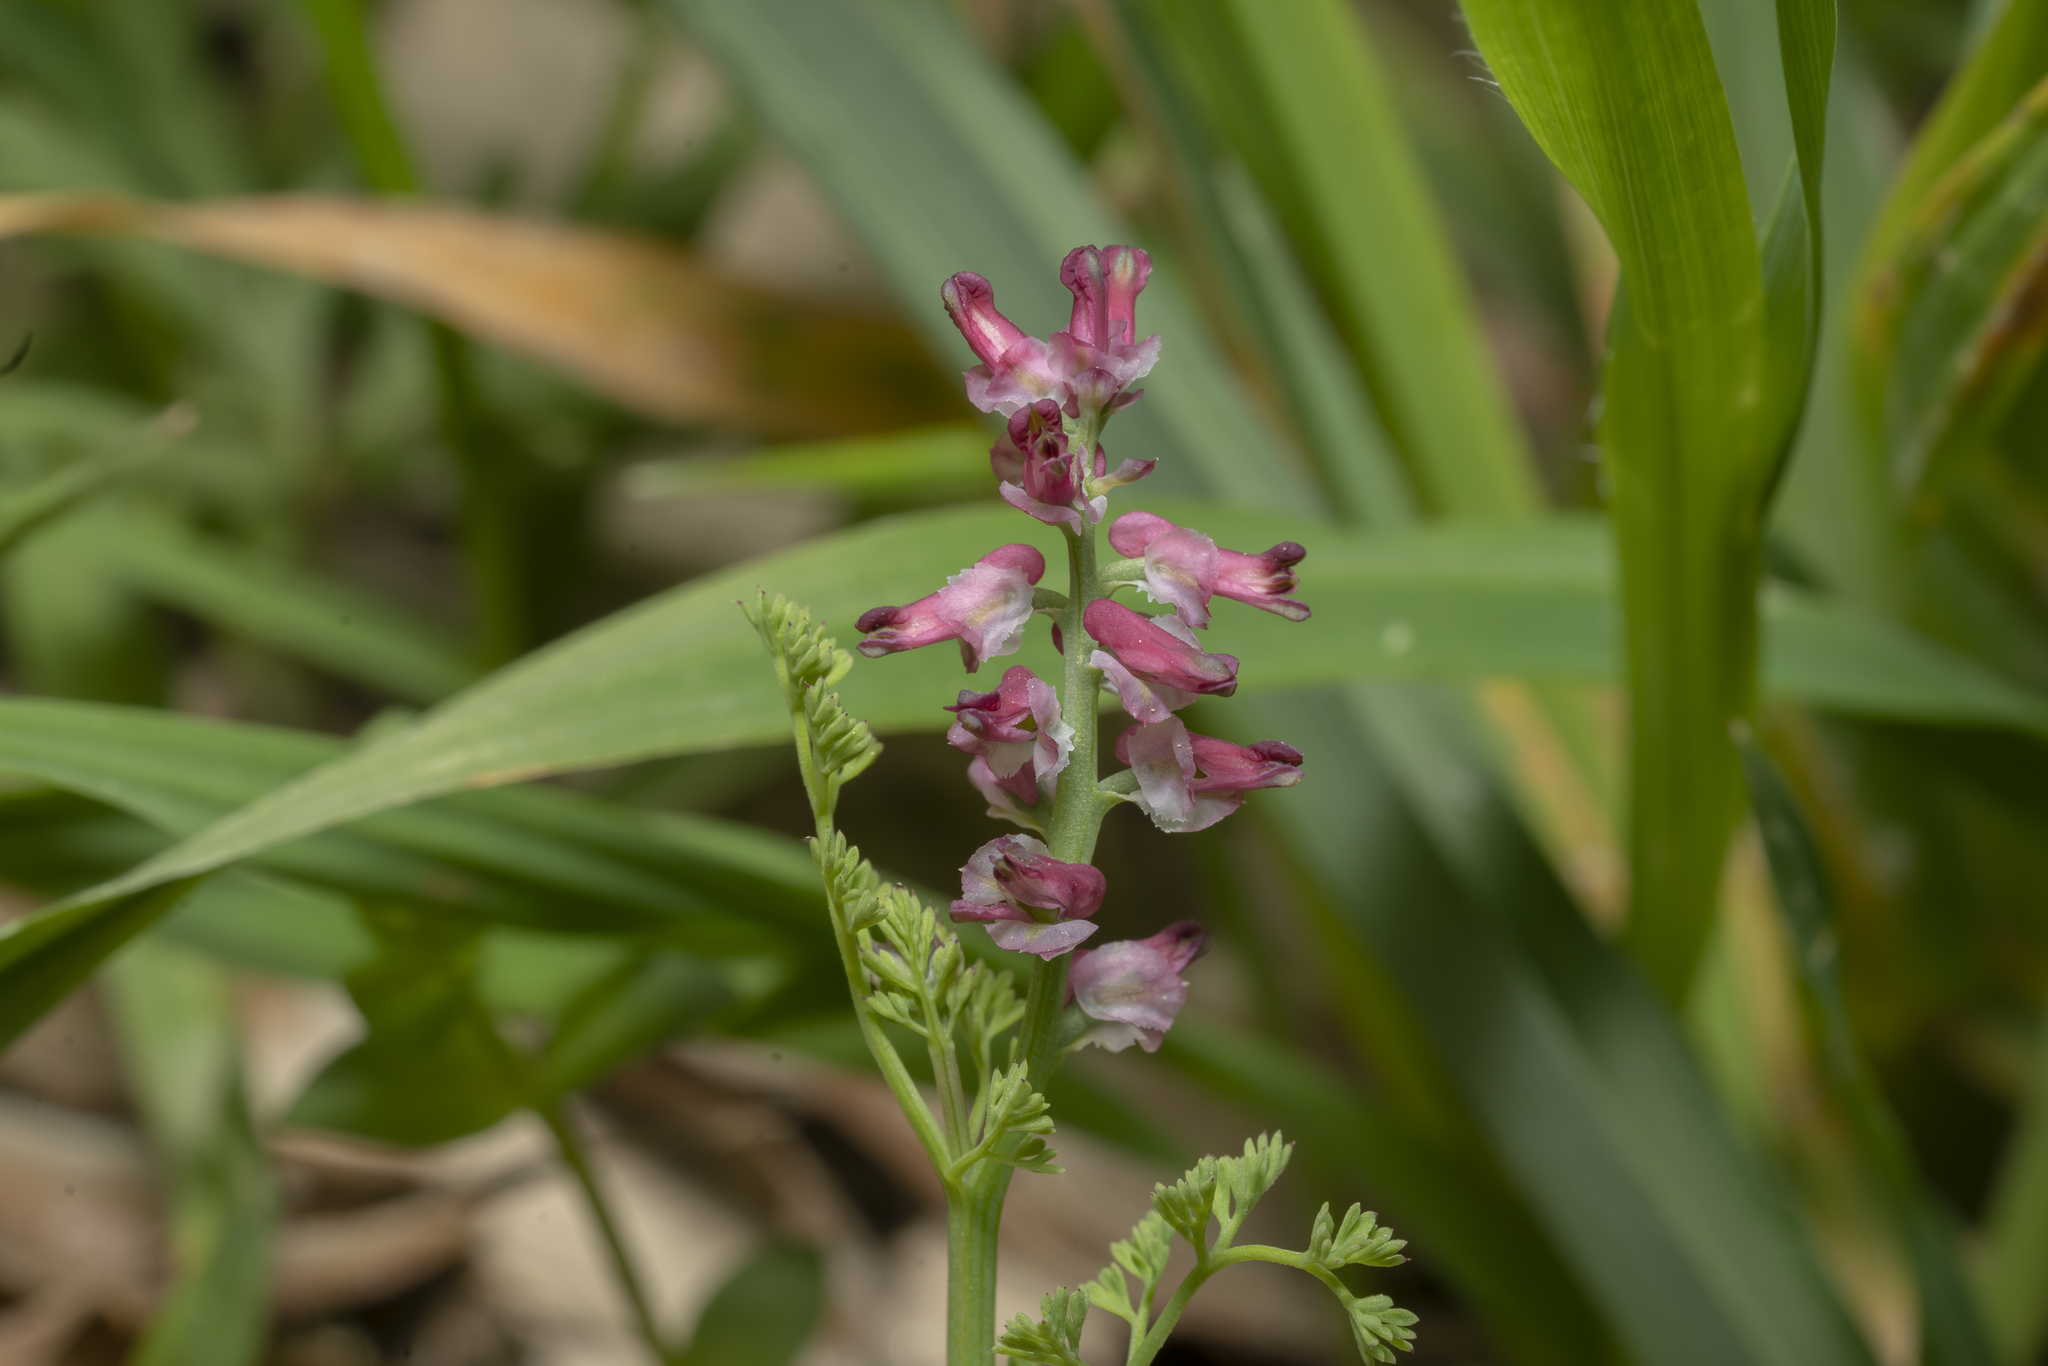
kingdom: Plantae
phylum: Tracheophyta
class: Magnoliopsida
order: Ranunculales
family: Papaveraceae
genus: Fumaria
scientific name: Fumaria densiflora
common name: Dense-flowered fumitory
